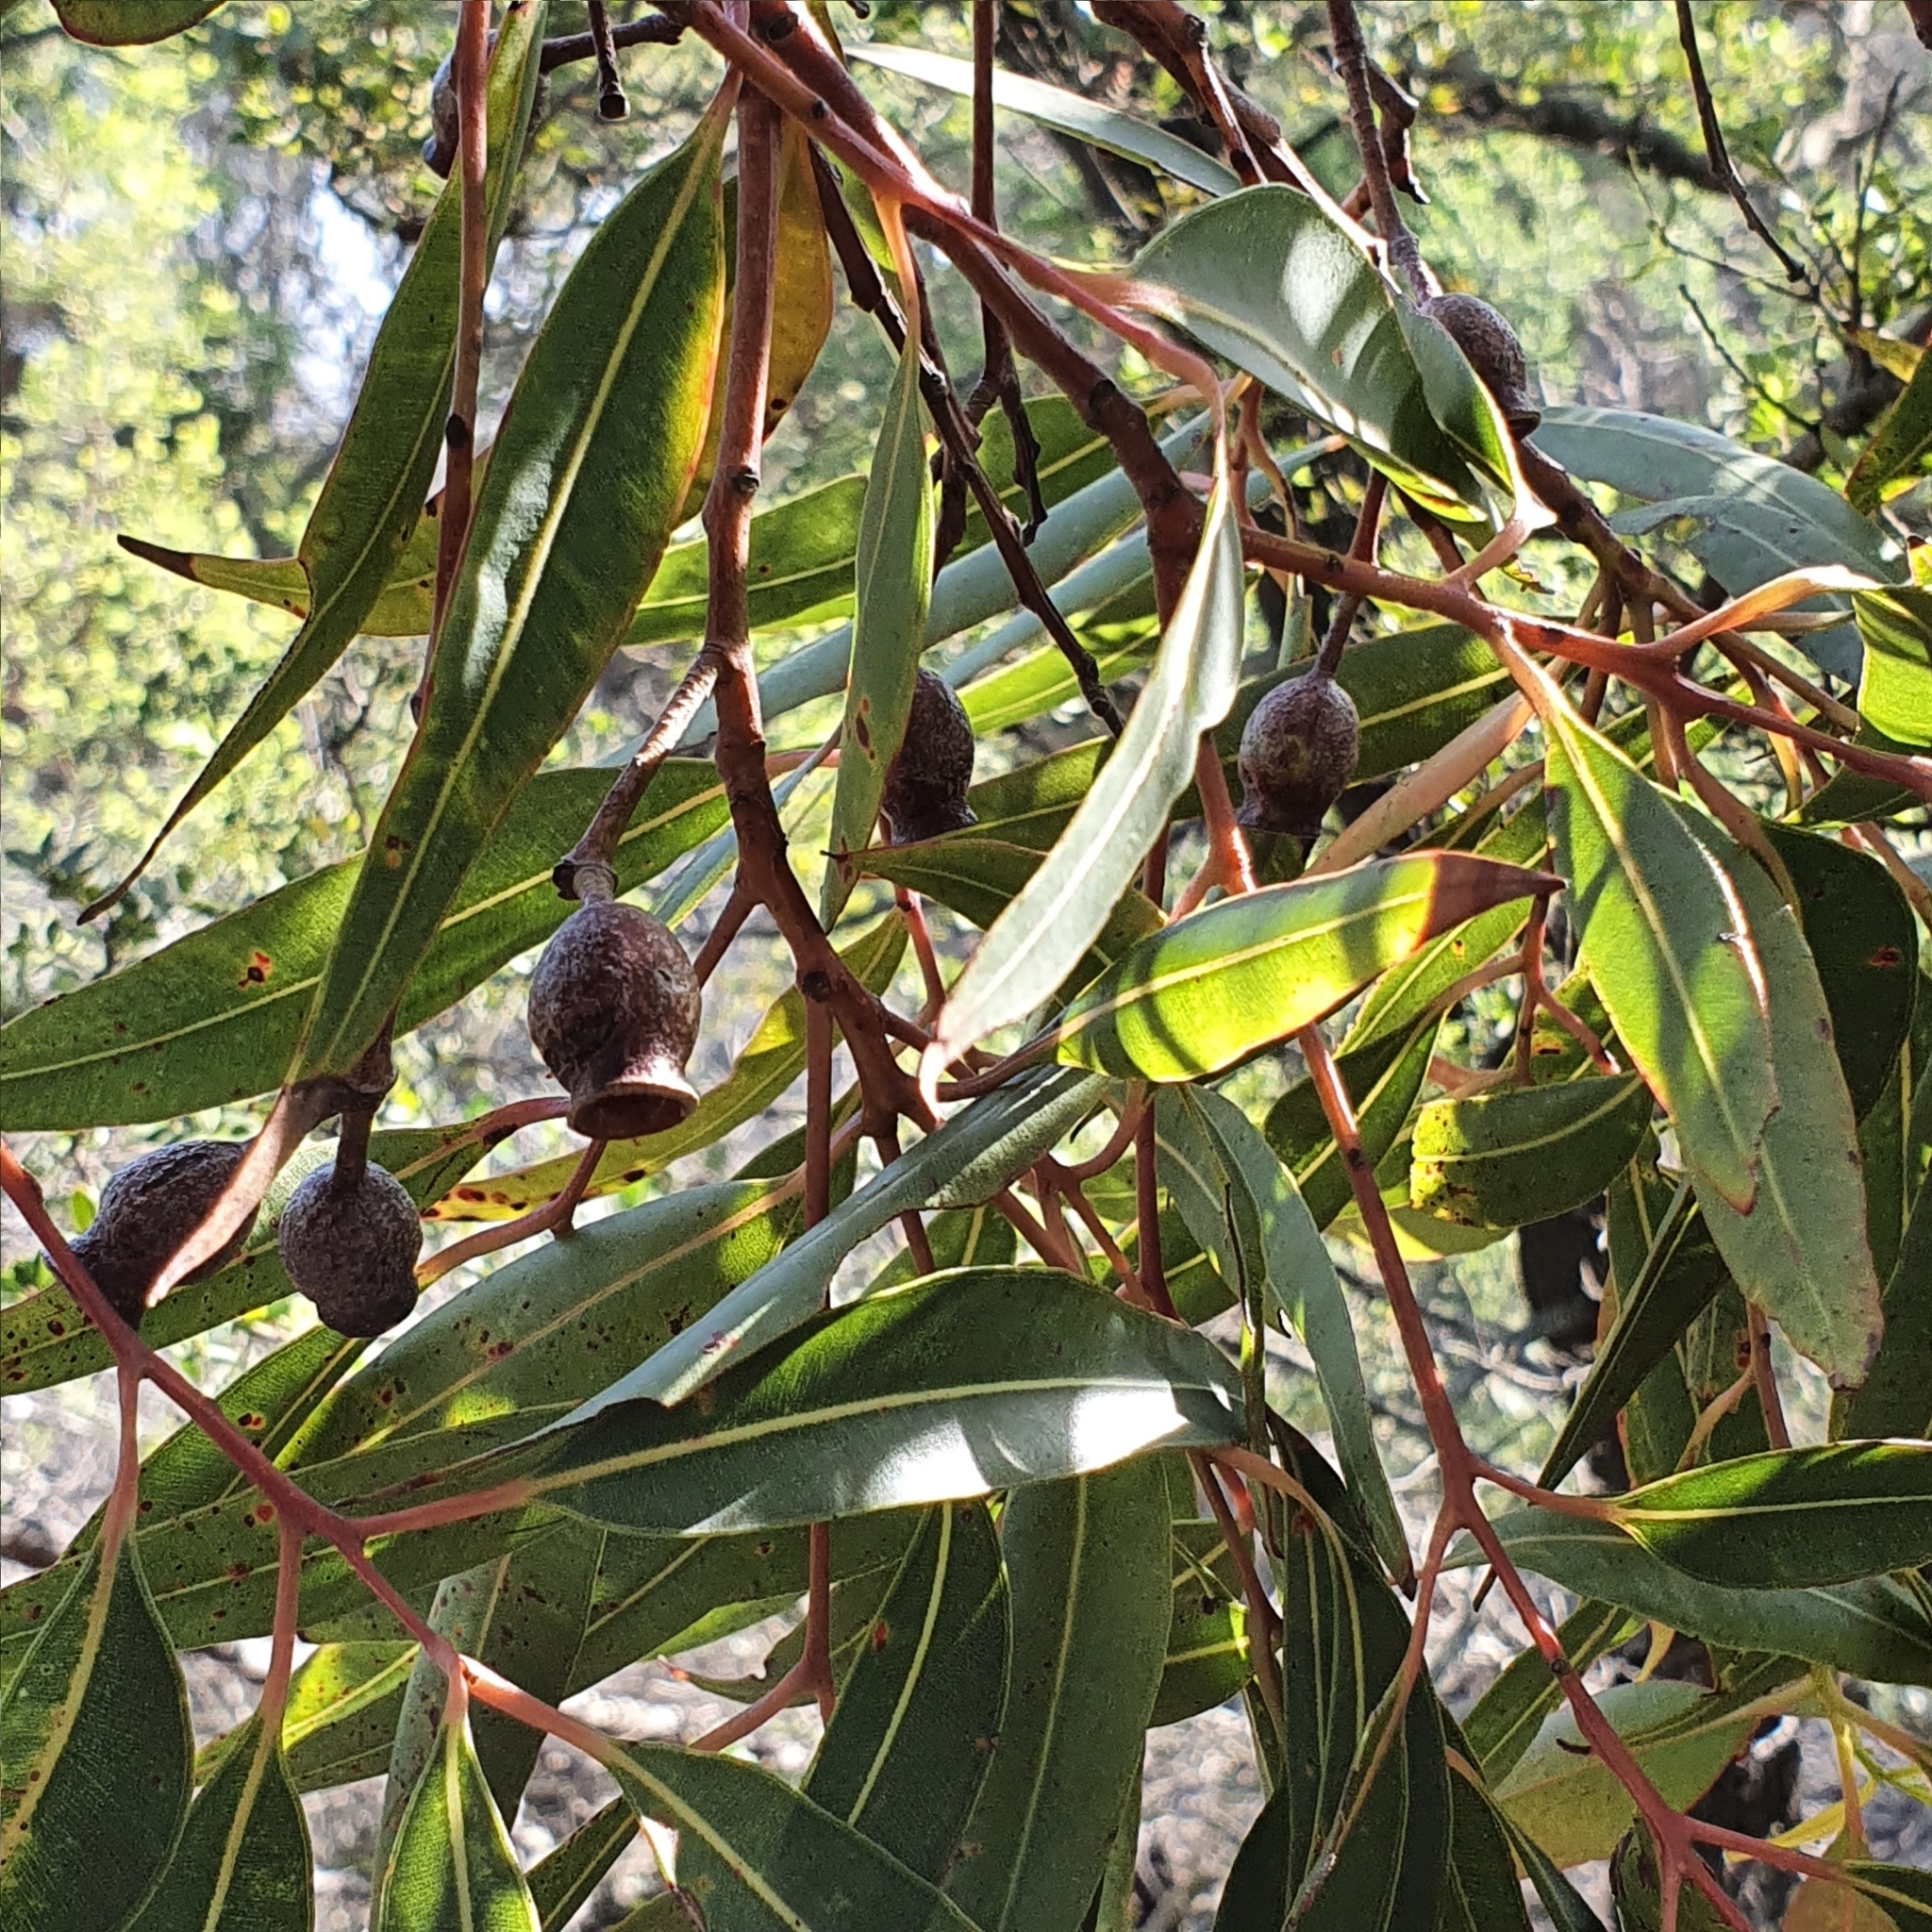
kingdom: Plantae
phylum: Tracheophyta
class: Magnoliopsida
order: Myrtales
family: Myrtaceae
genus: Corymbia
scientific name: Corymbia gummifera
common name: Red bloodwood
